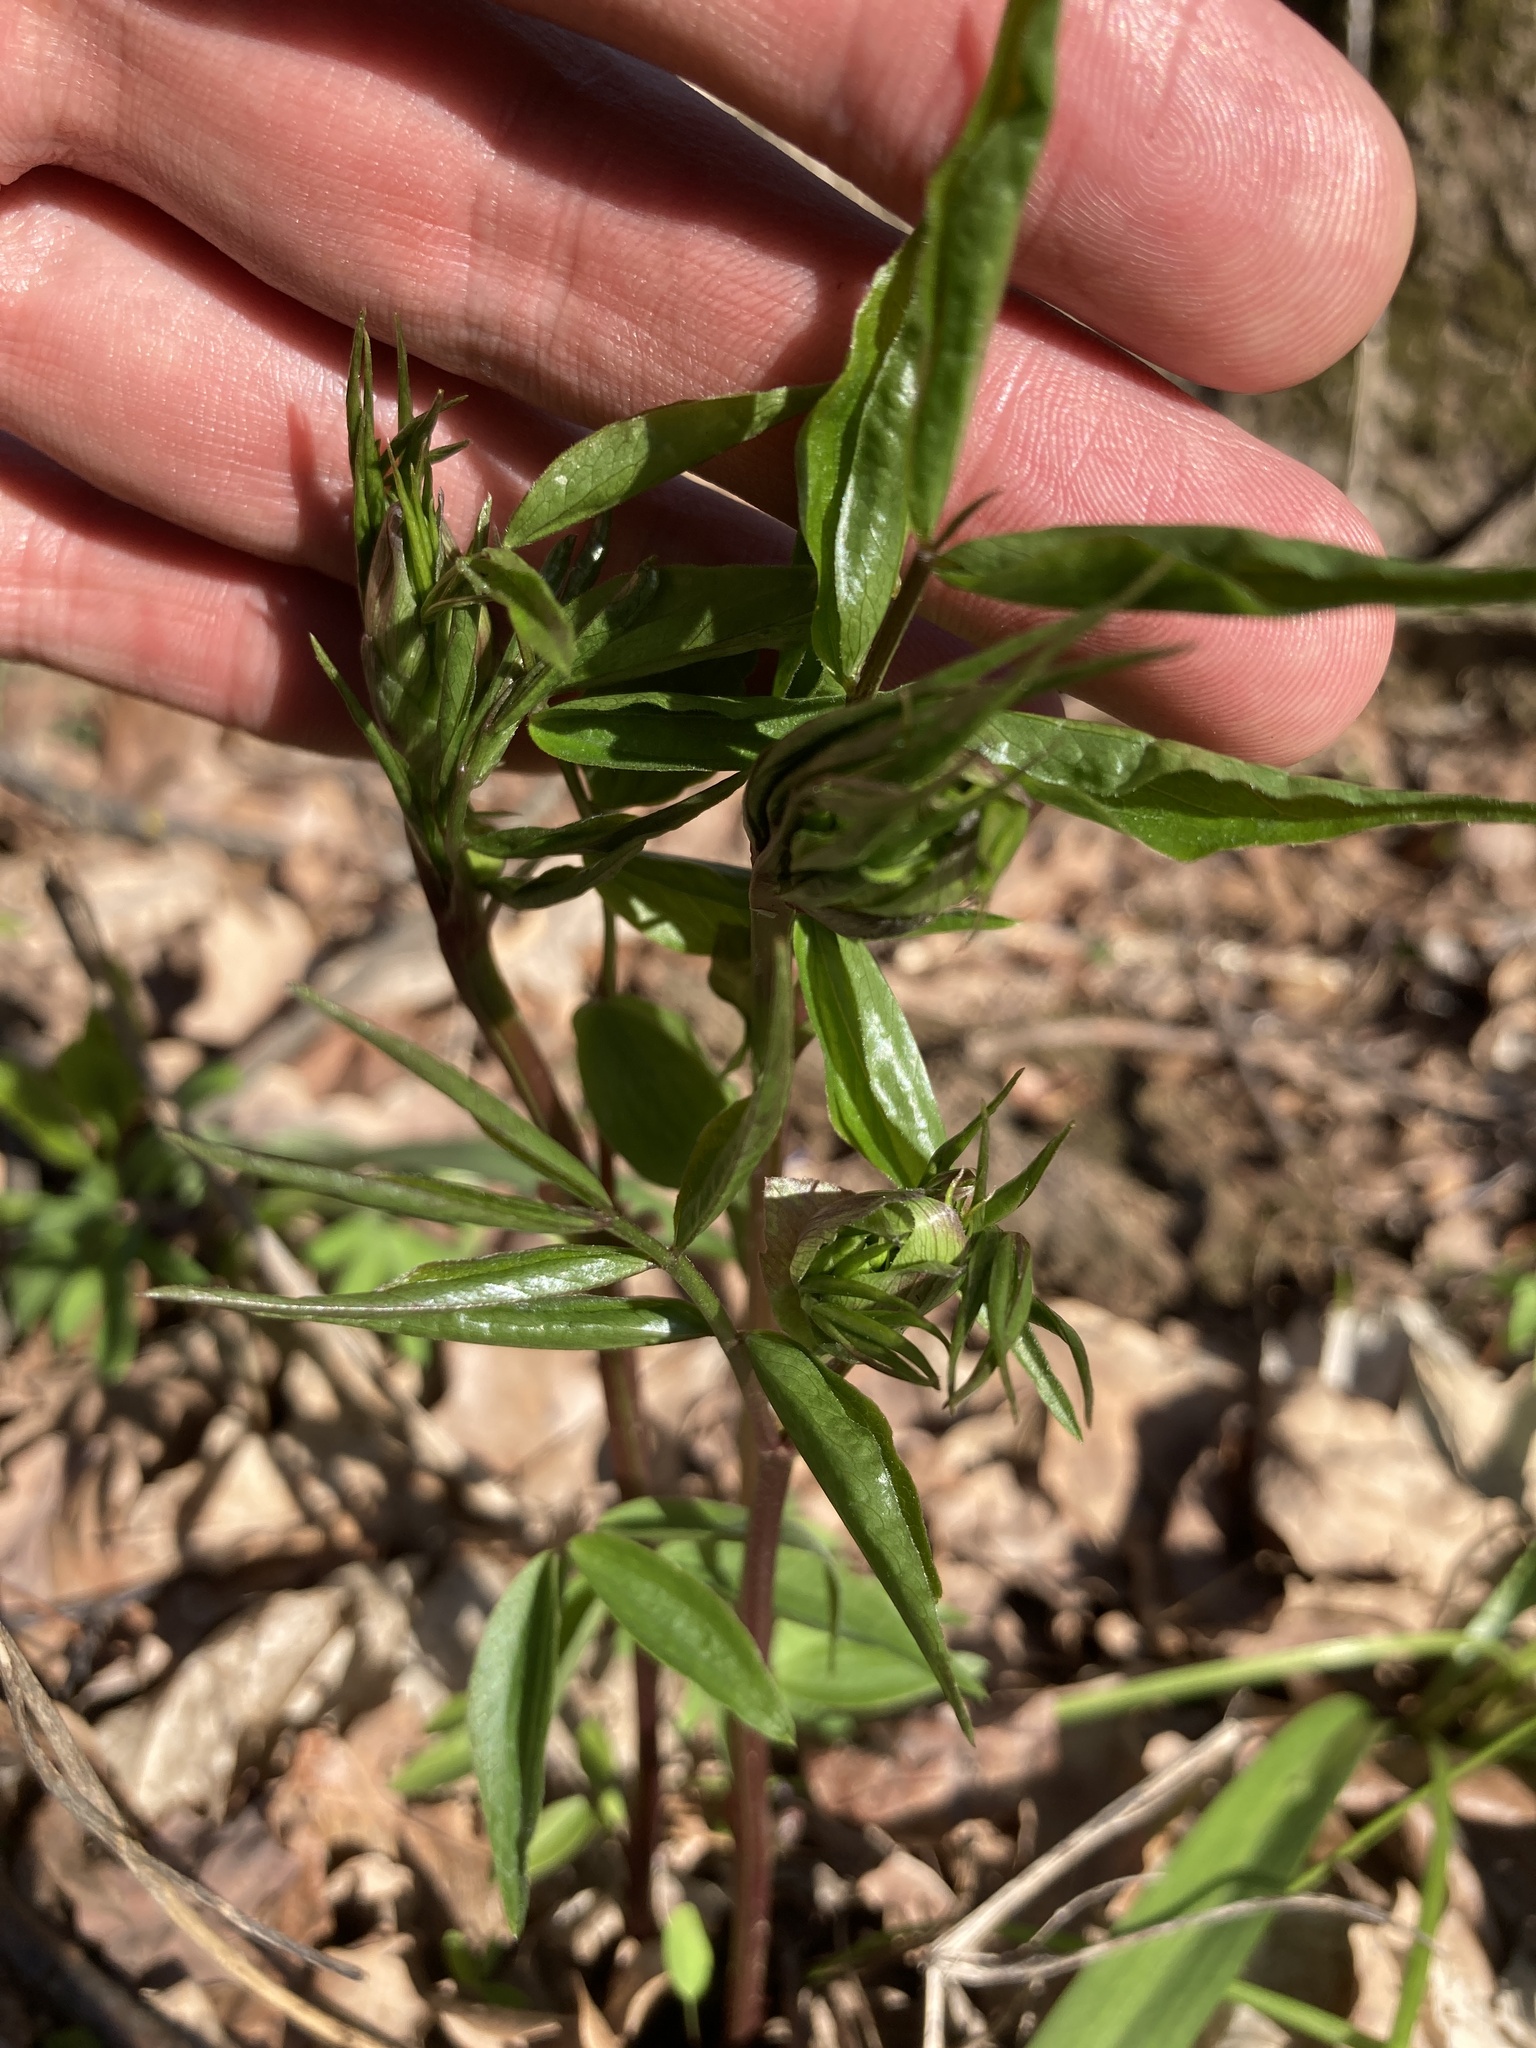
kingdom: Plantae
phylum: Tracheophyta
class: Magnoliopsida
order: Fabales
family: Fabaceae
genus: Lathyrus
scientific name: Lathyrus vernus
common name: Spring pea
